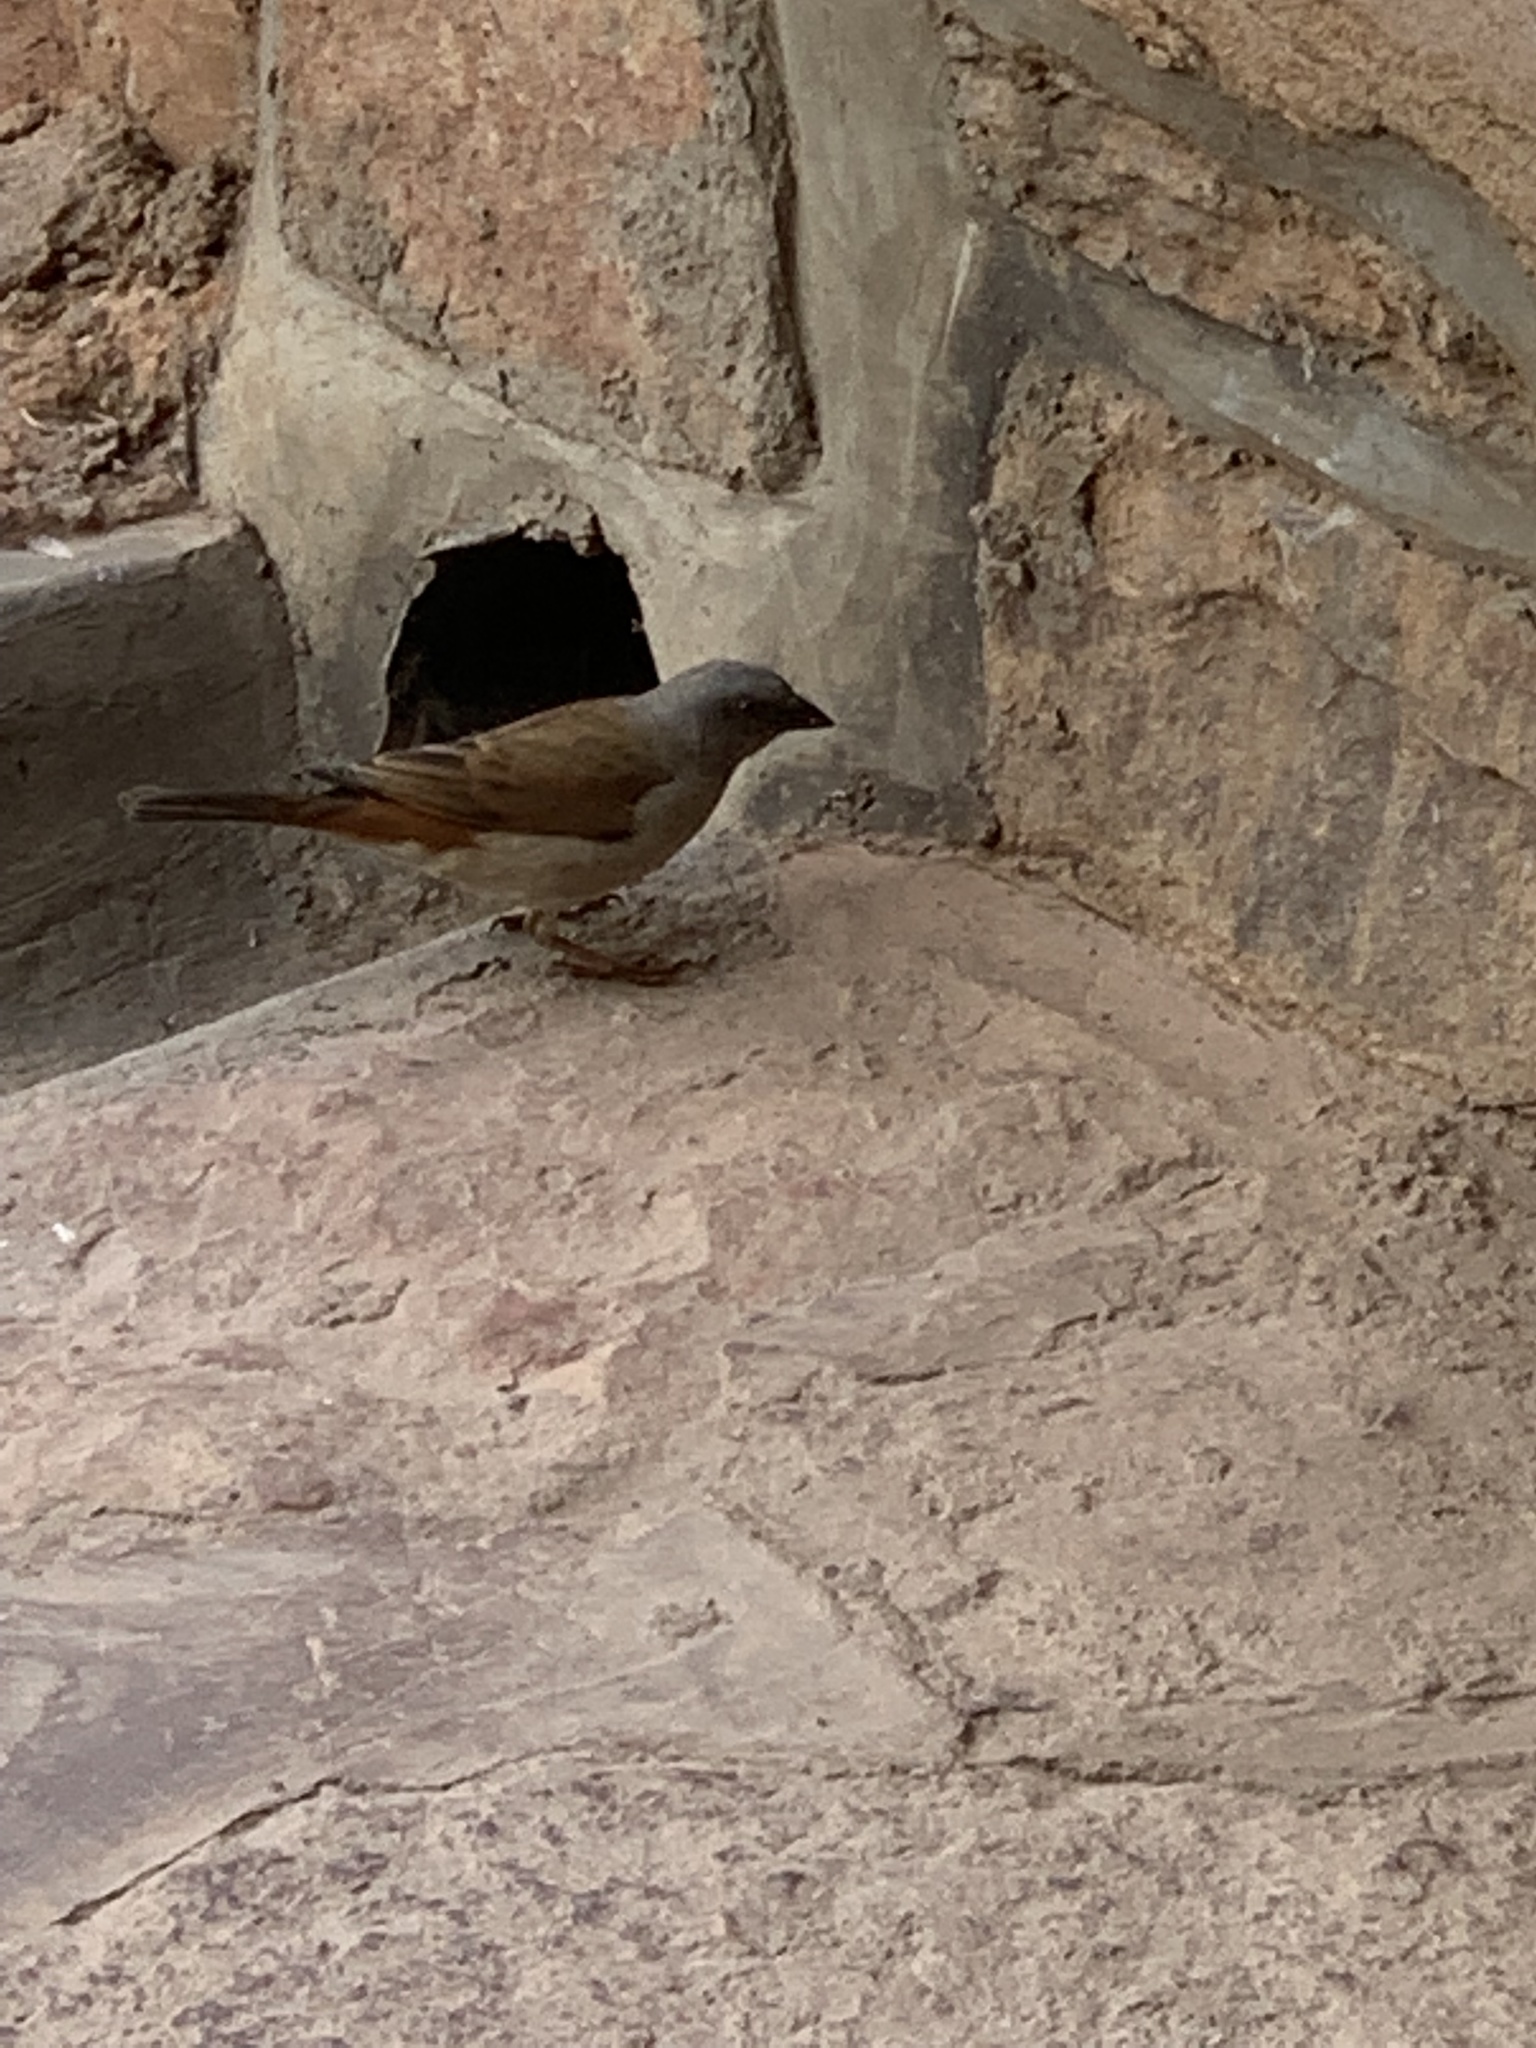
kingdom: Animalia
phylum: Chordata
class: Aves
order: Passeriformes
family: Passeridae
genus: Passer
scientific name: Passer griseus
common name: Northern grey-headed sparrow
